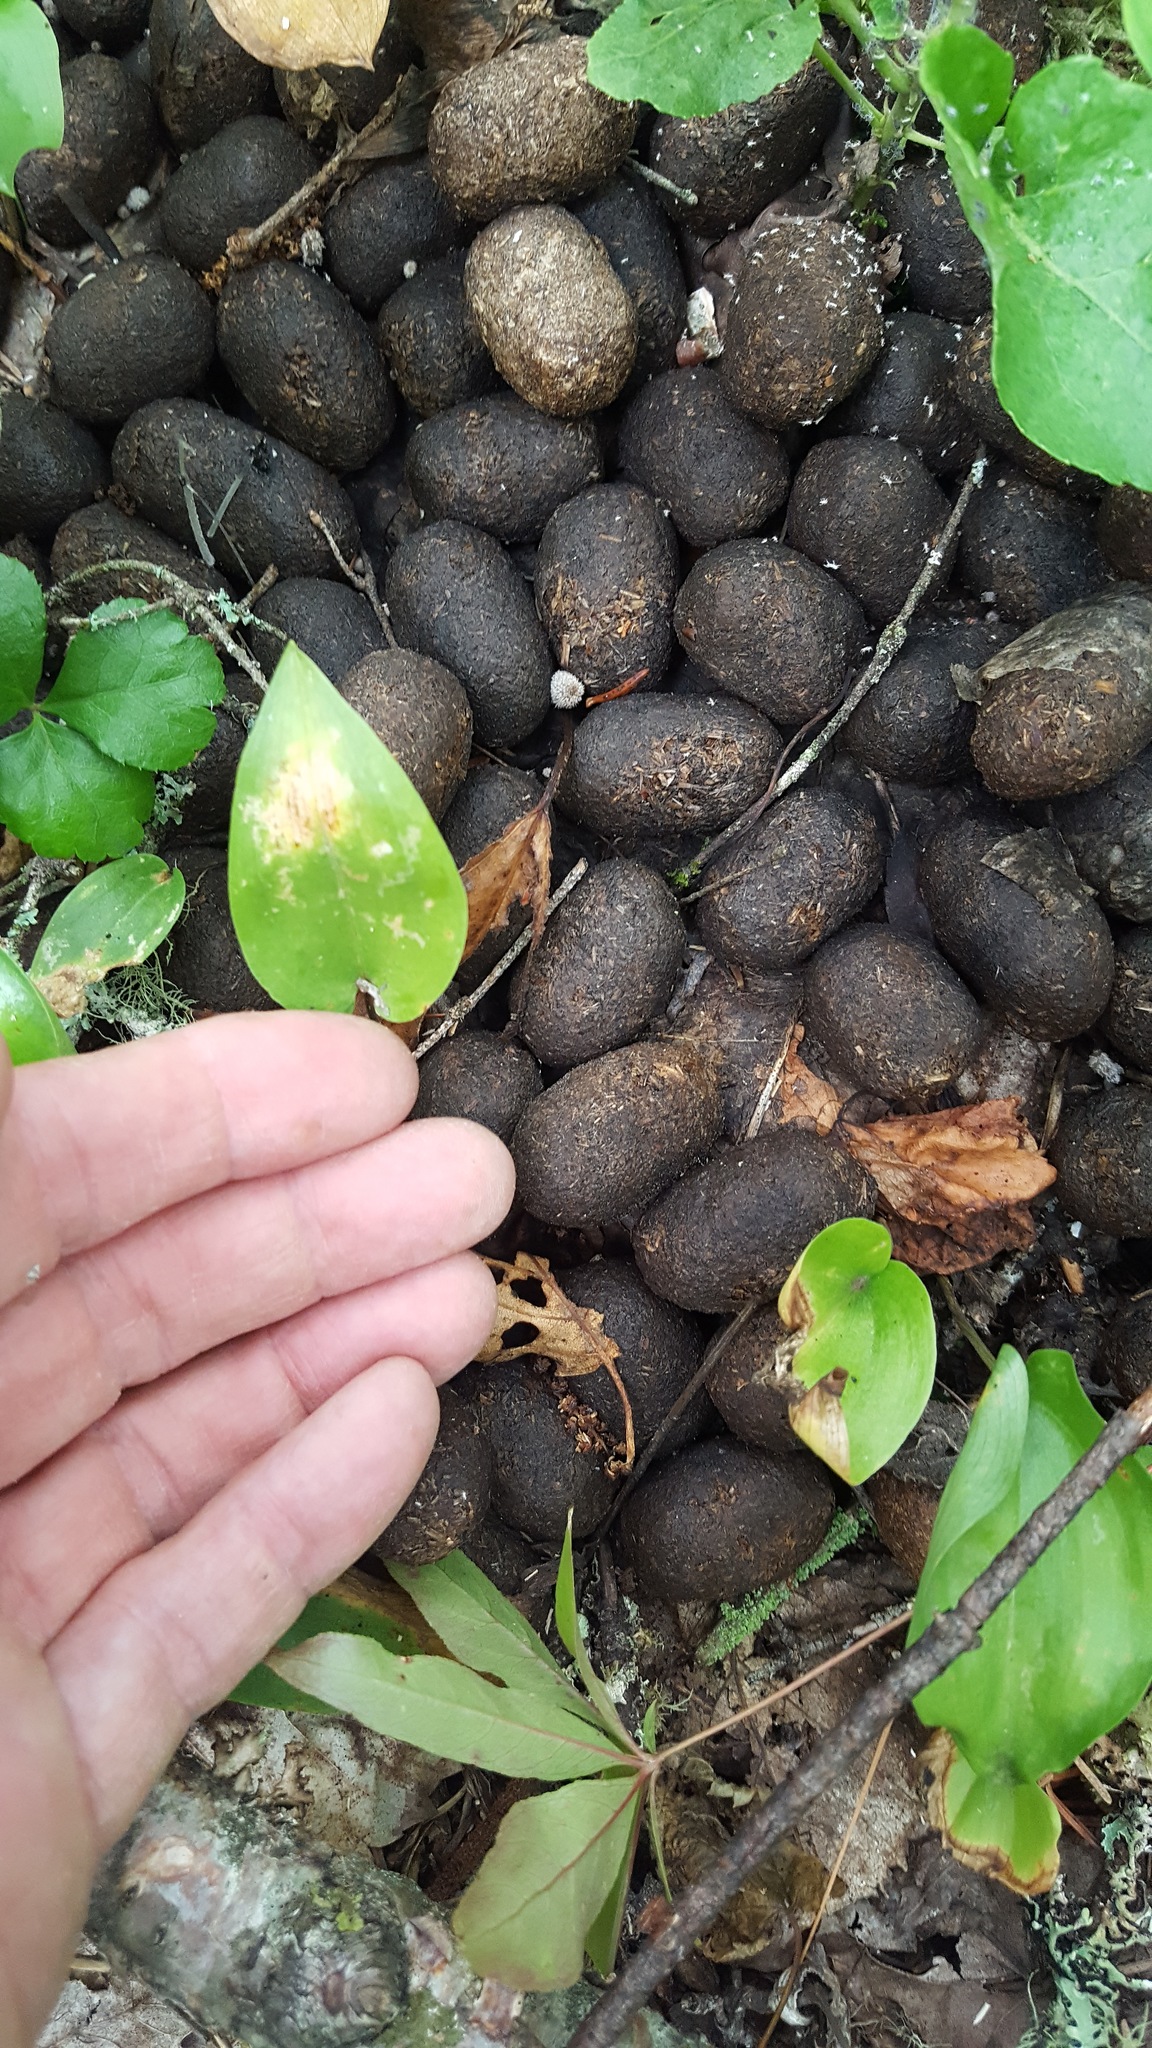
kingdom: Animalia
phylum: Chordata
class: Mammalia
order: Artiodactyla
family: Cervidae
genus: Alces
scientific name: Alces alces
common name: Moose
